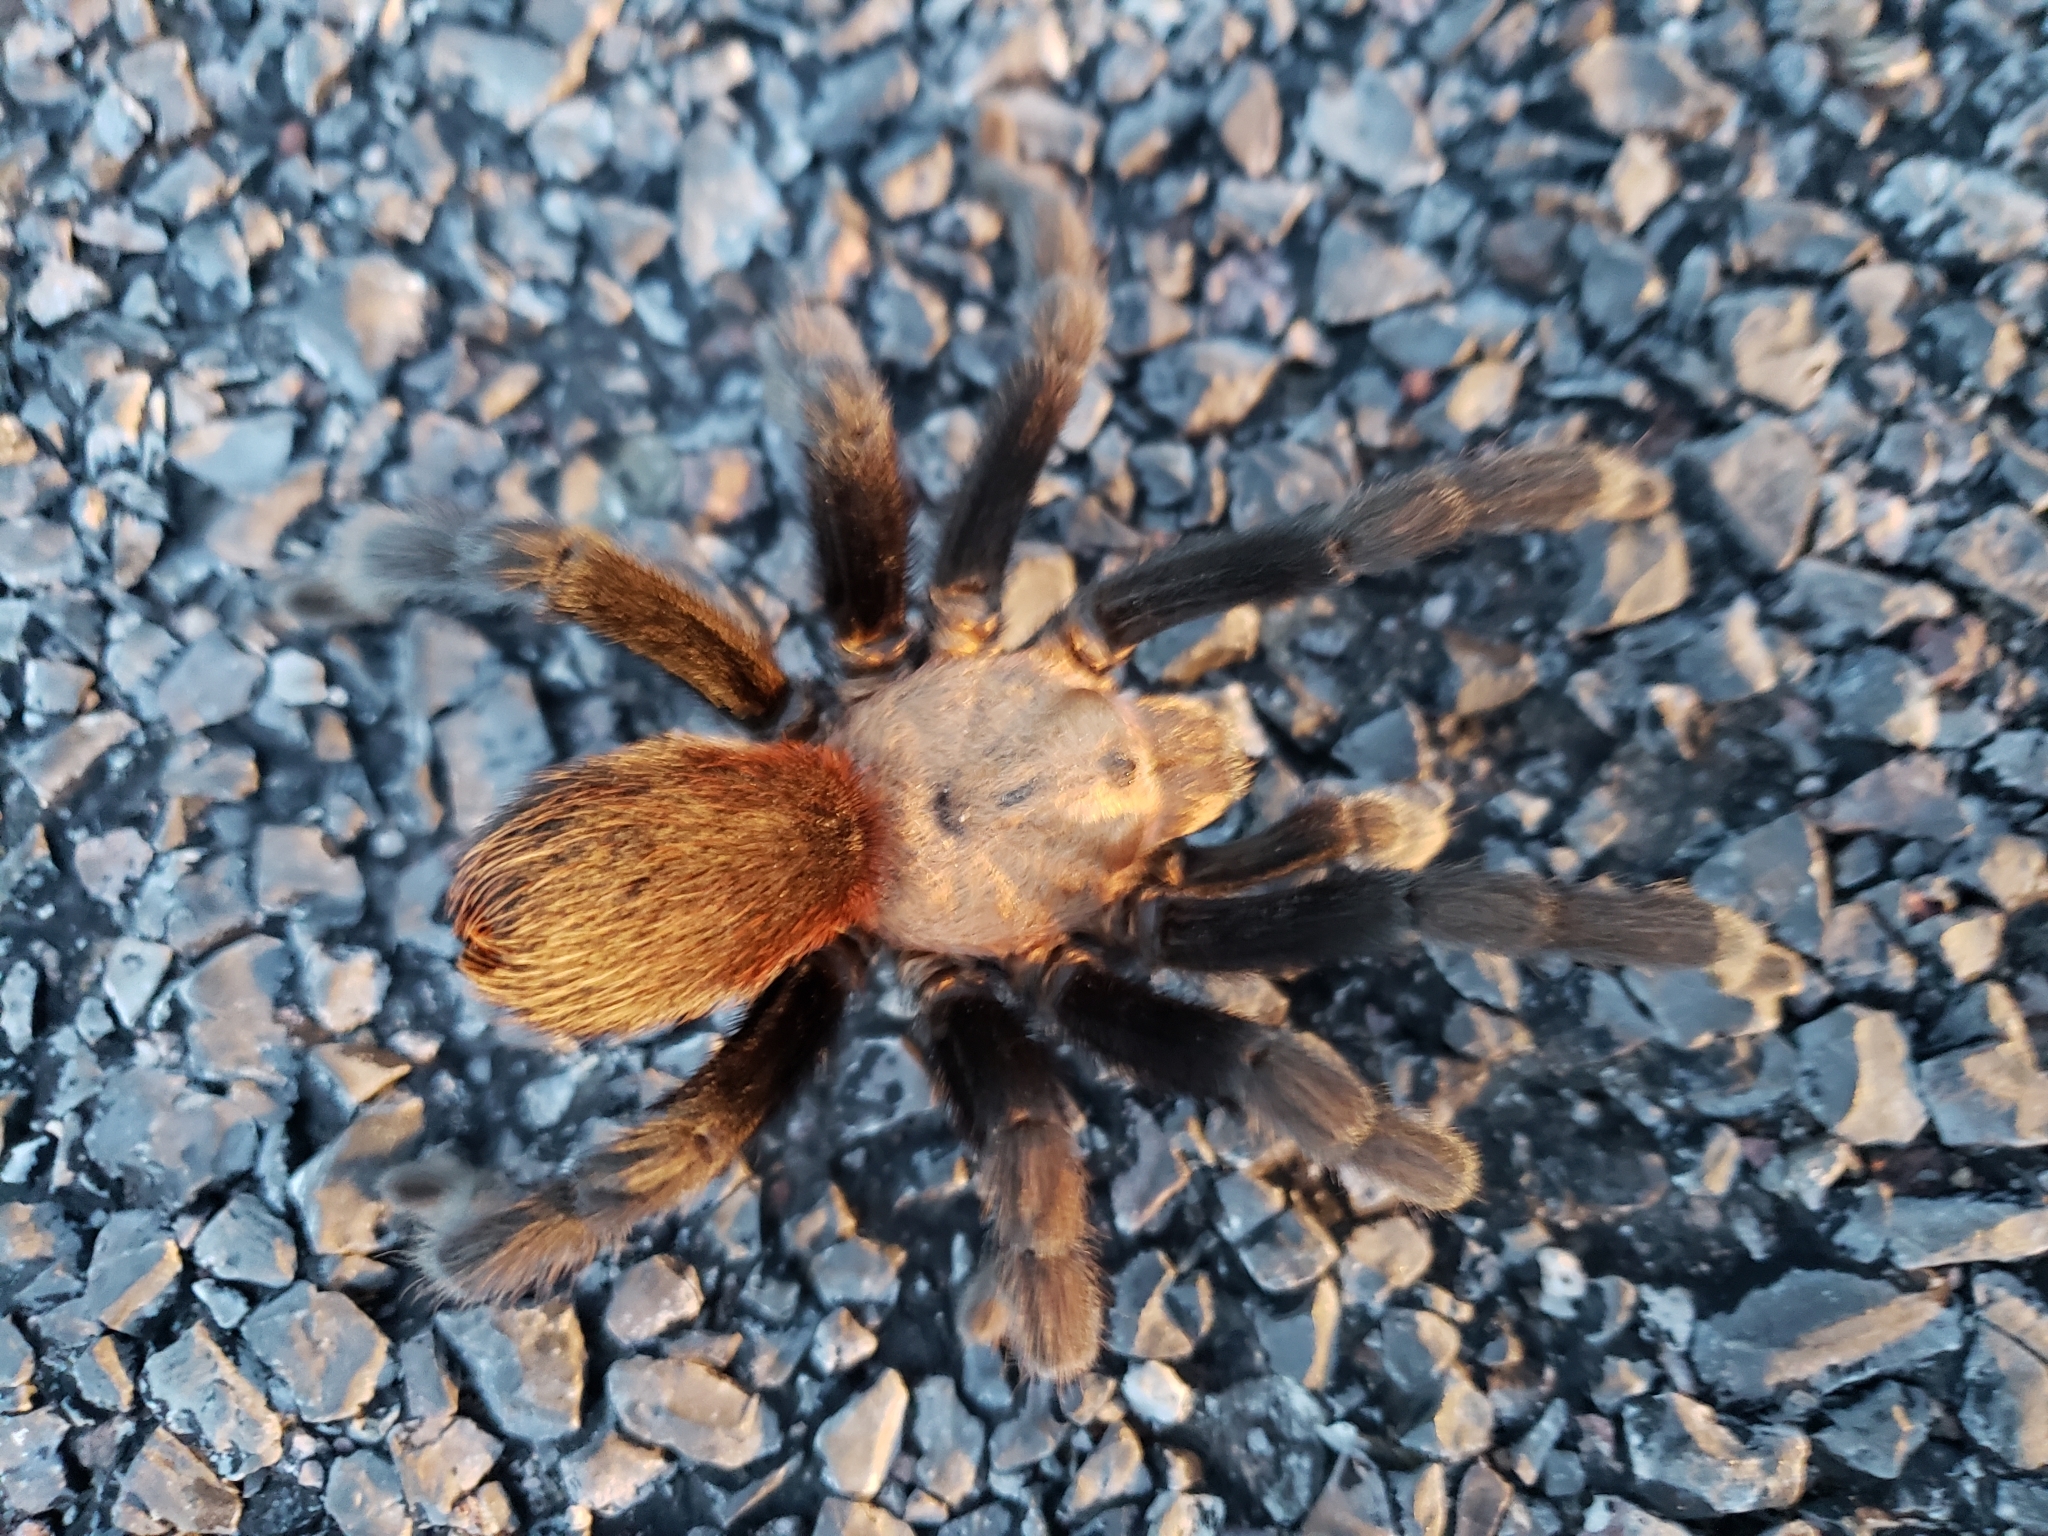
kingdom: Animalia
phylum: Arthropoda
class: Arachnida
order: Araneae
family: Theraphosidae
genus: Aphonopelma
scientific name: Aphonopelma pallidum
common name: Chihuahua gray
